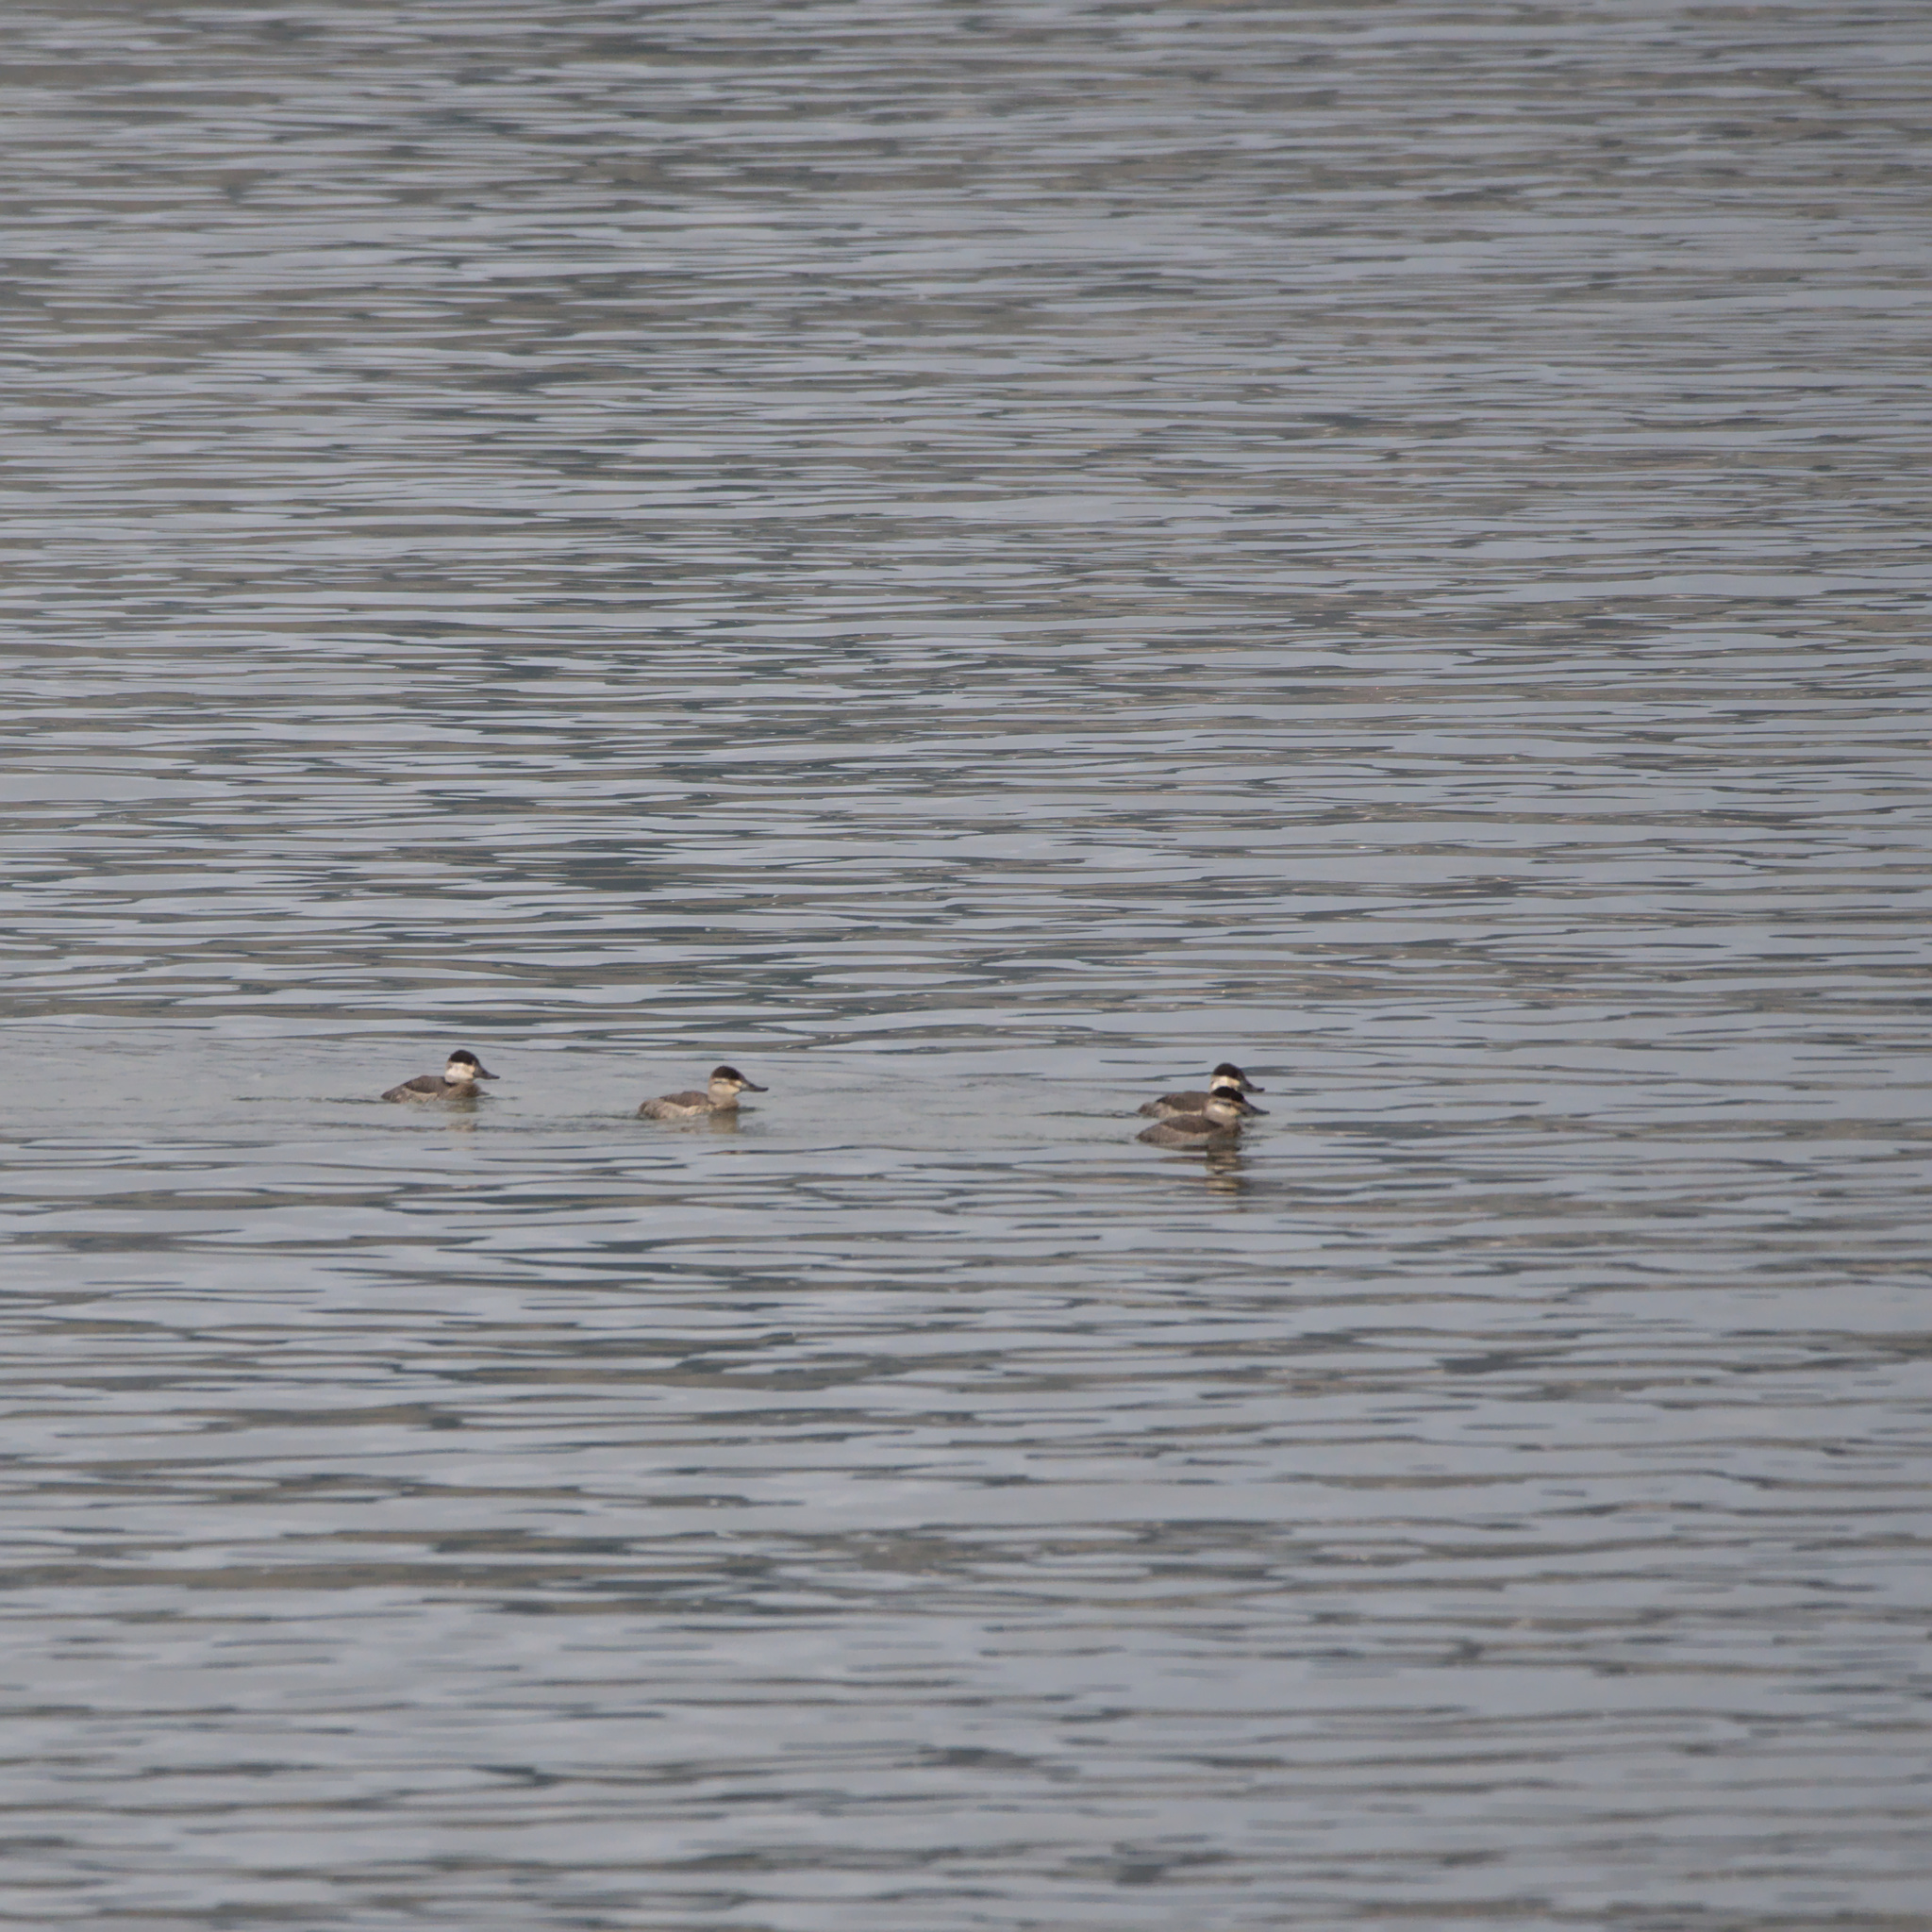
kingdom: Animalia
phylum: Chordata
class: Aves
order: Anseriformes
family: Anatidae
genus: Oxyura
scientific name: Oxyura jamaicensis
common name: Ruddy duck
